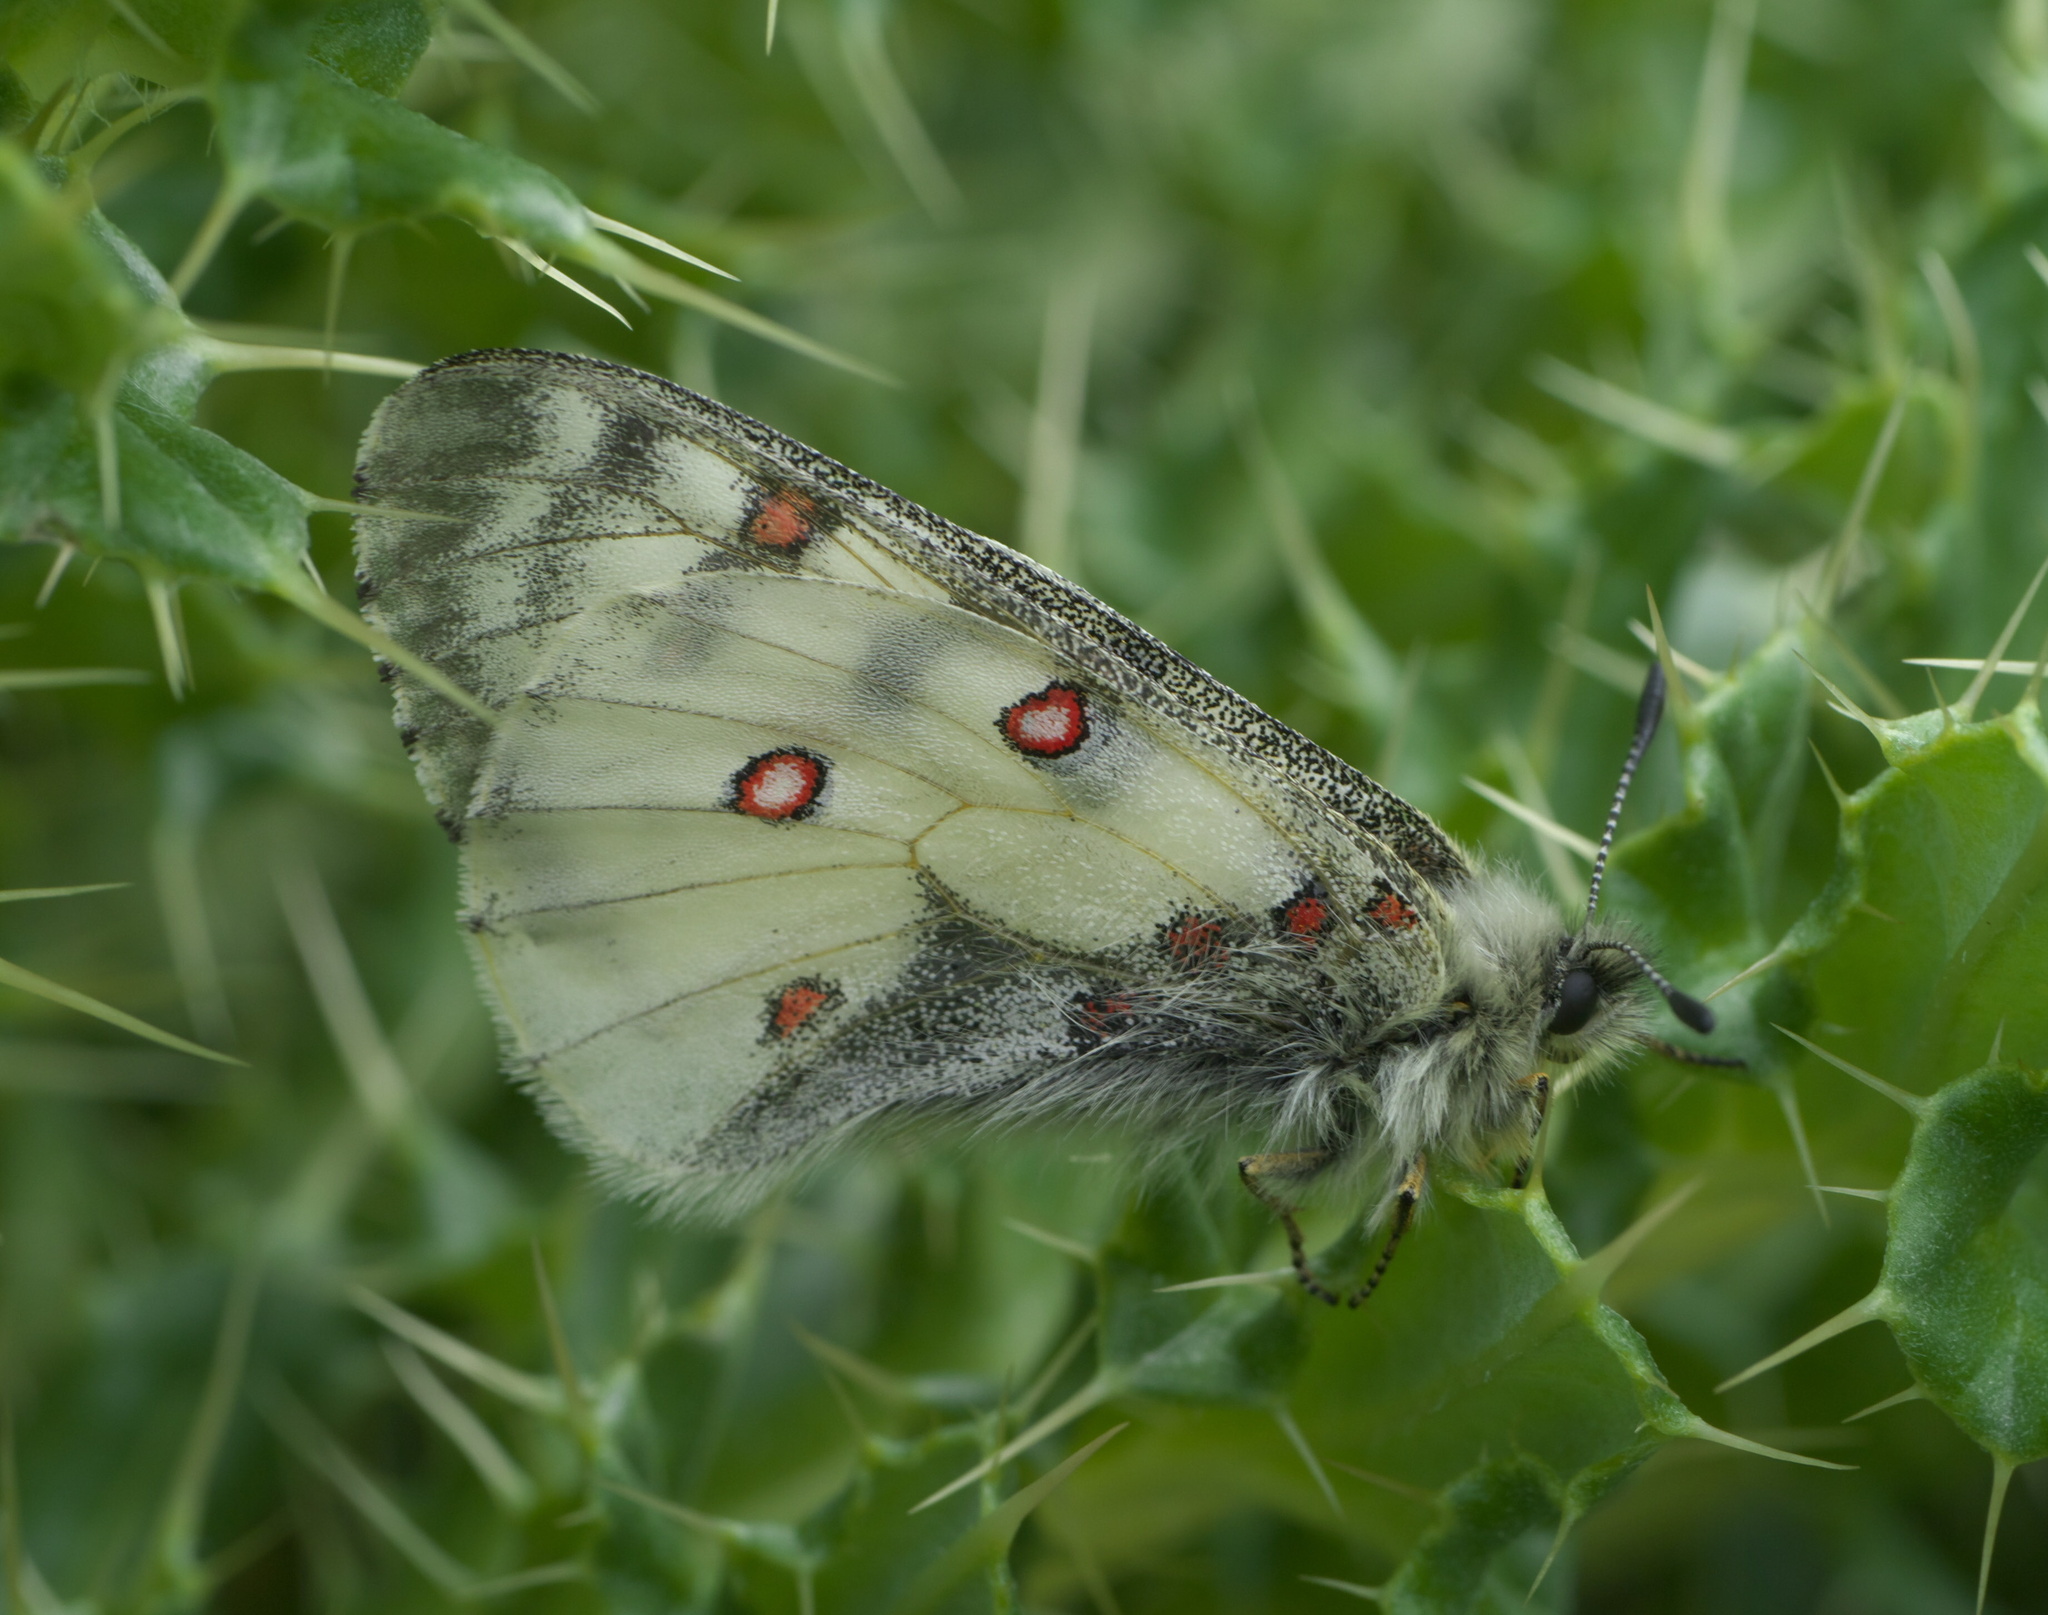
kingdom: Animalia
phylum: Arthropoda
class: Insecta
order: Lepidoptera
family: Papilionidae
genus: Parnassius
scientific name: Parnassius smintheus
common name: Mountain parnassian
